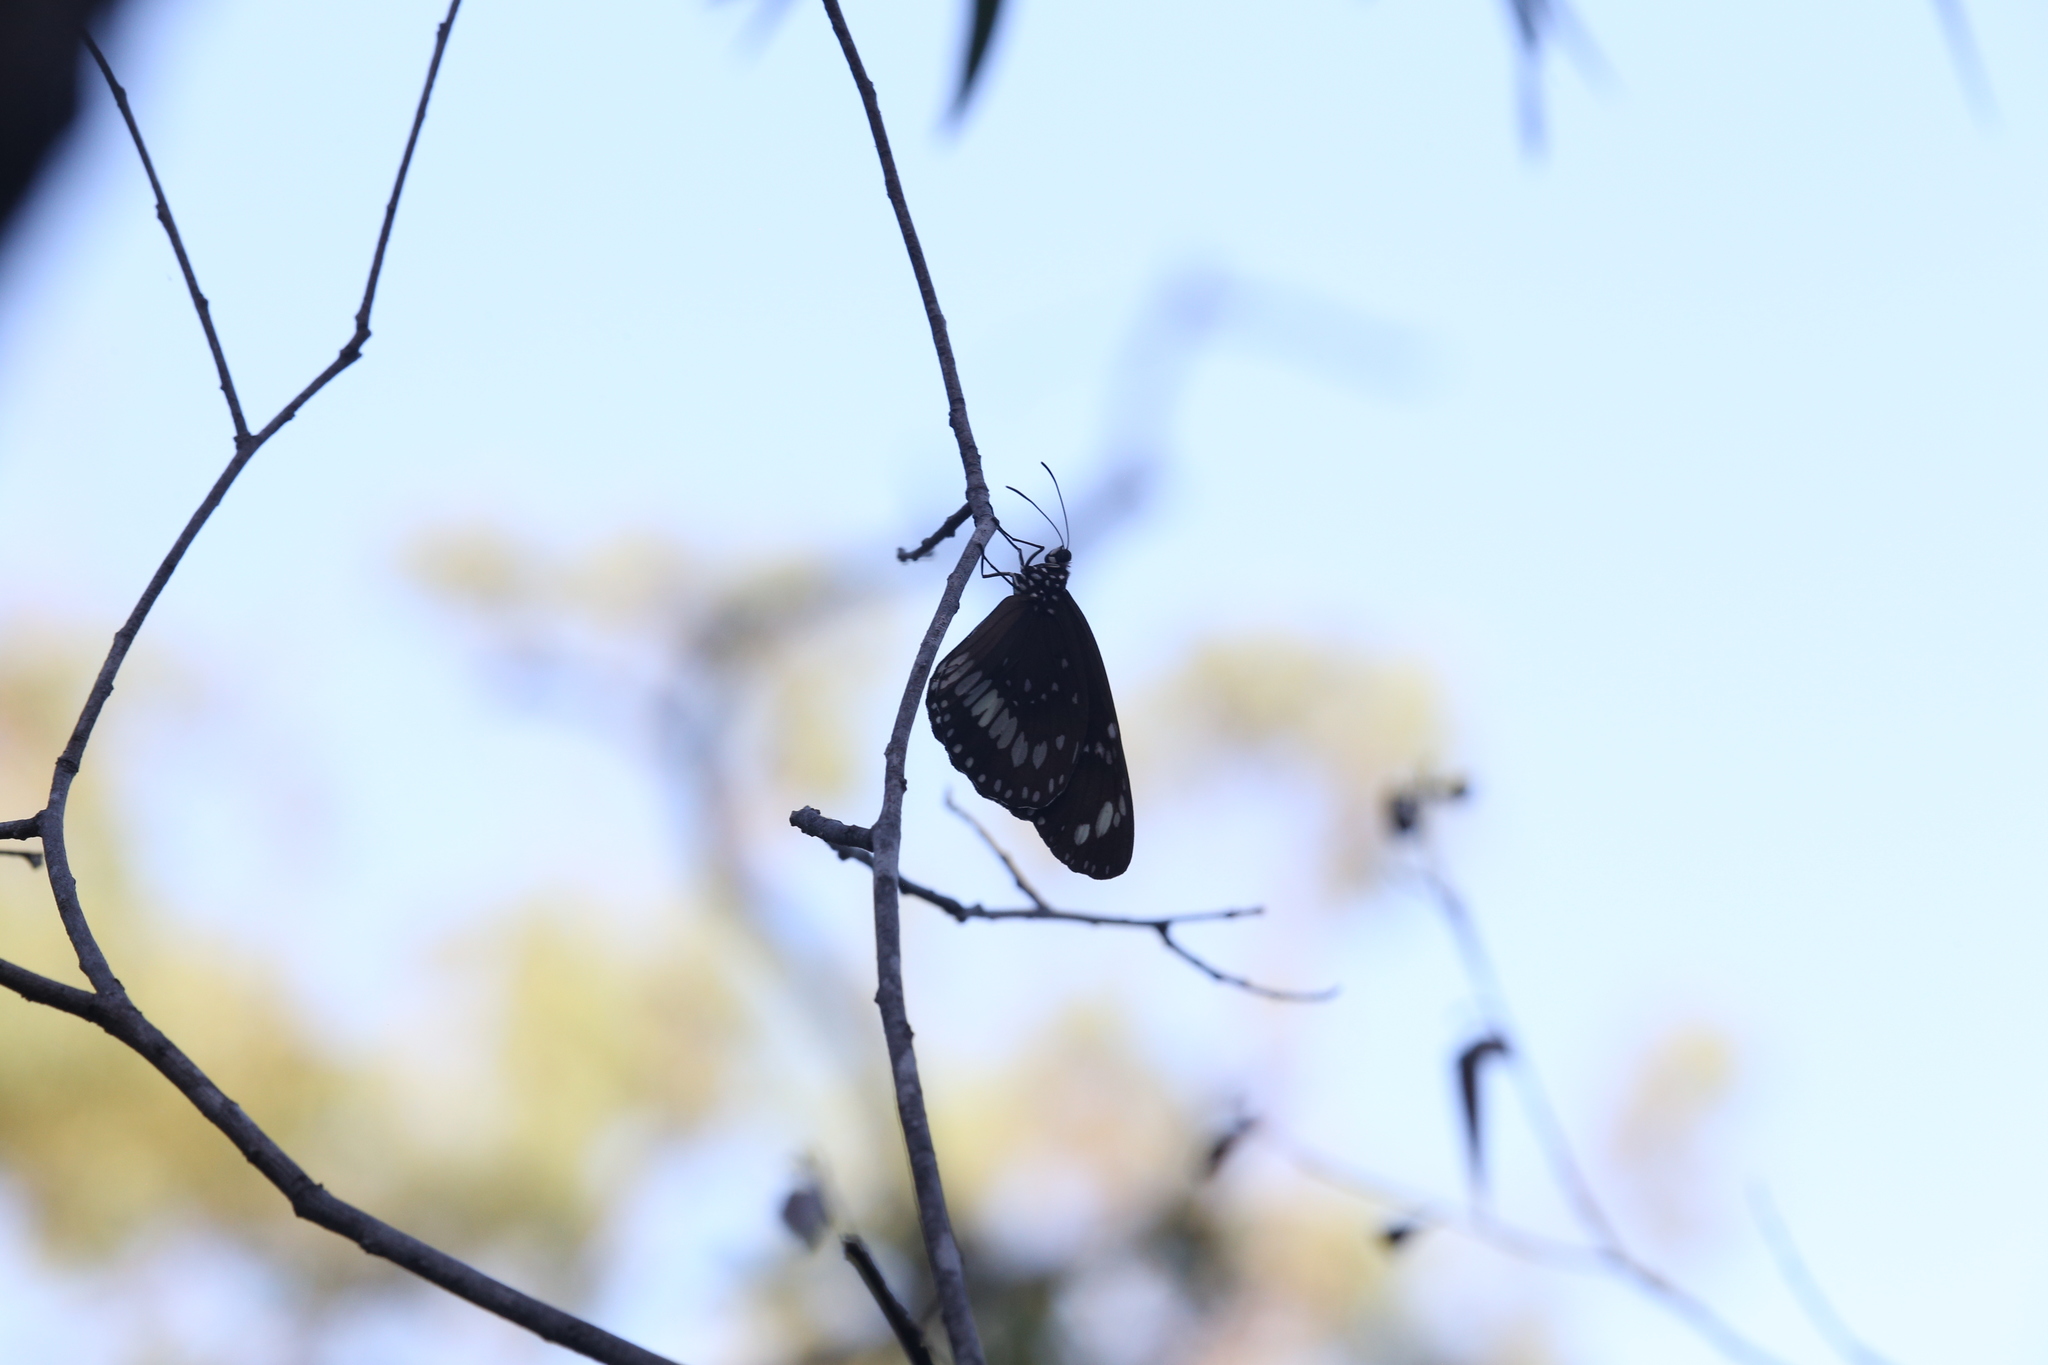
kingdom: Animalia
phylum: Arthropoda
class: Insecta
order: Lepidoptera
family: Nymphalidae
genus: Euploea
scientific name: Euploea core
